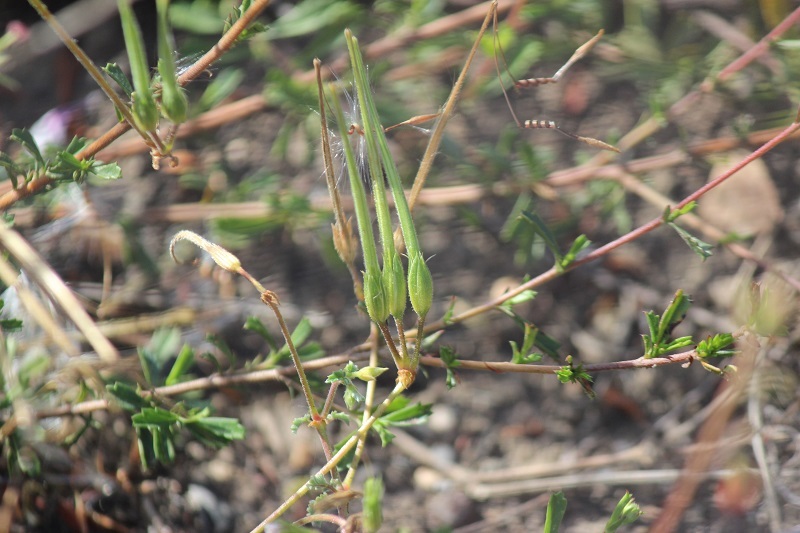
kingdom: Plantae
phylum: Tracheophyta
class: Magnoliopsida
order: Geraniales
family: Geraniaceae
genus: Pelargonium
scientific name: Pelargonium candicans
